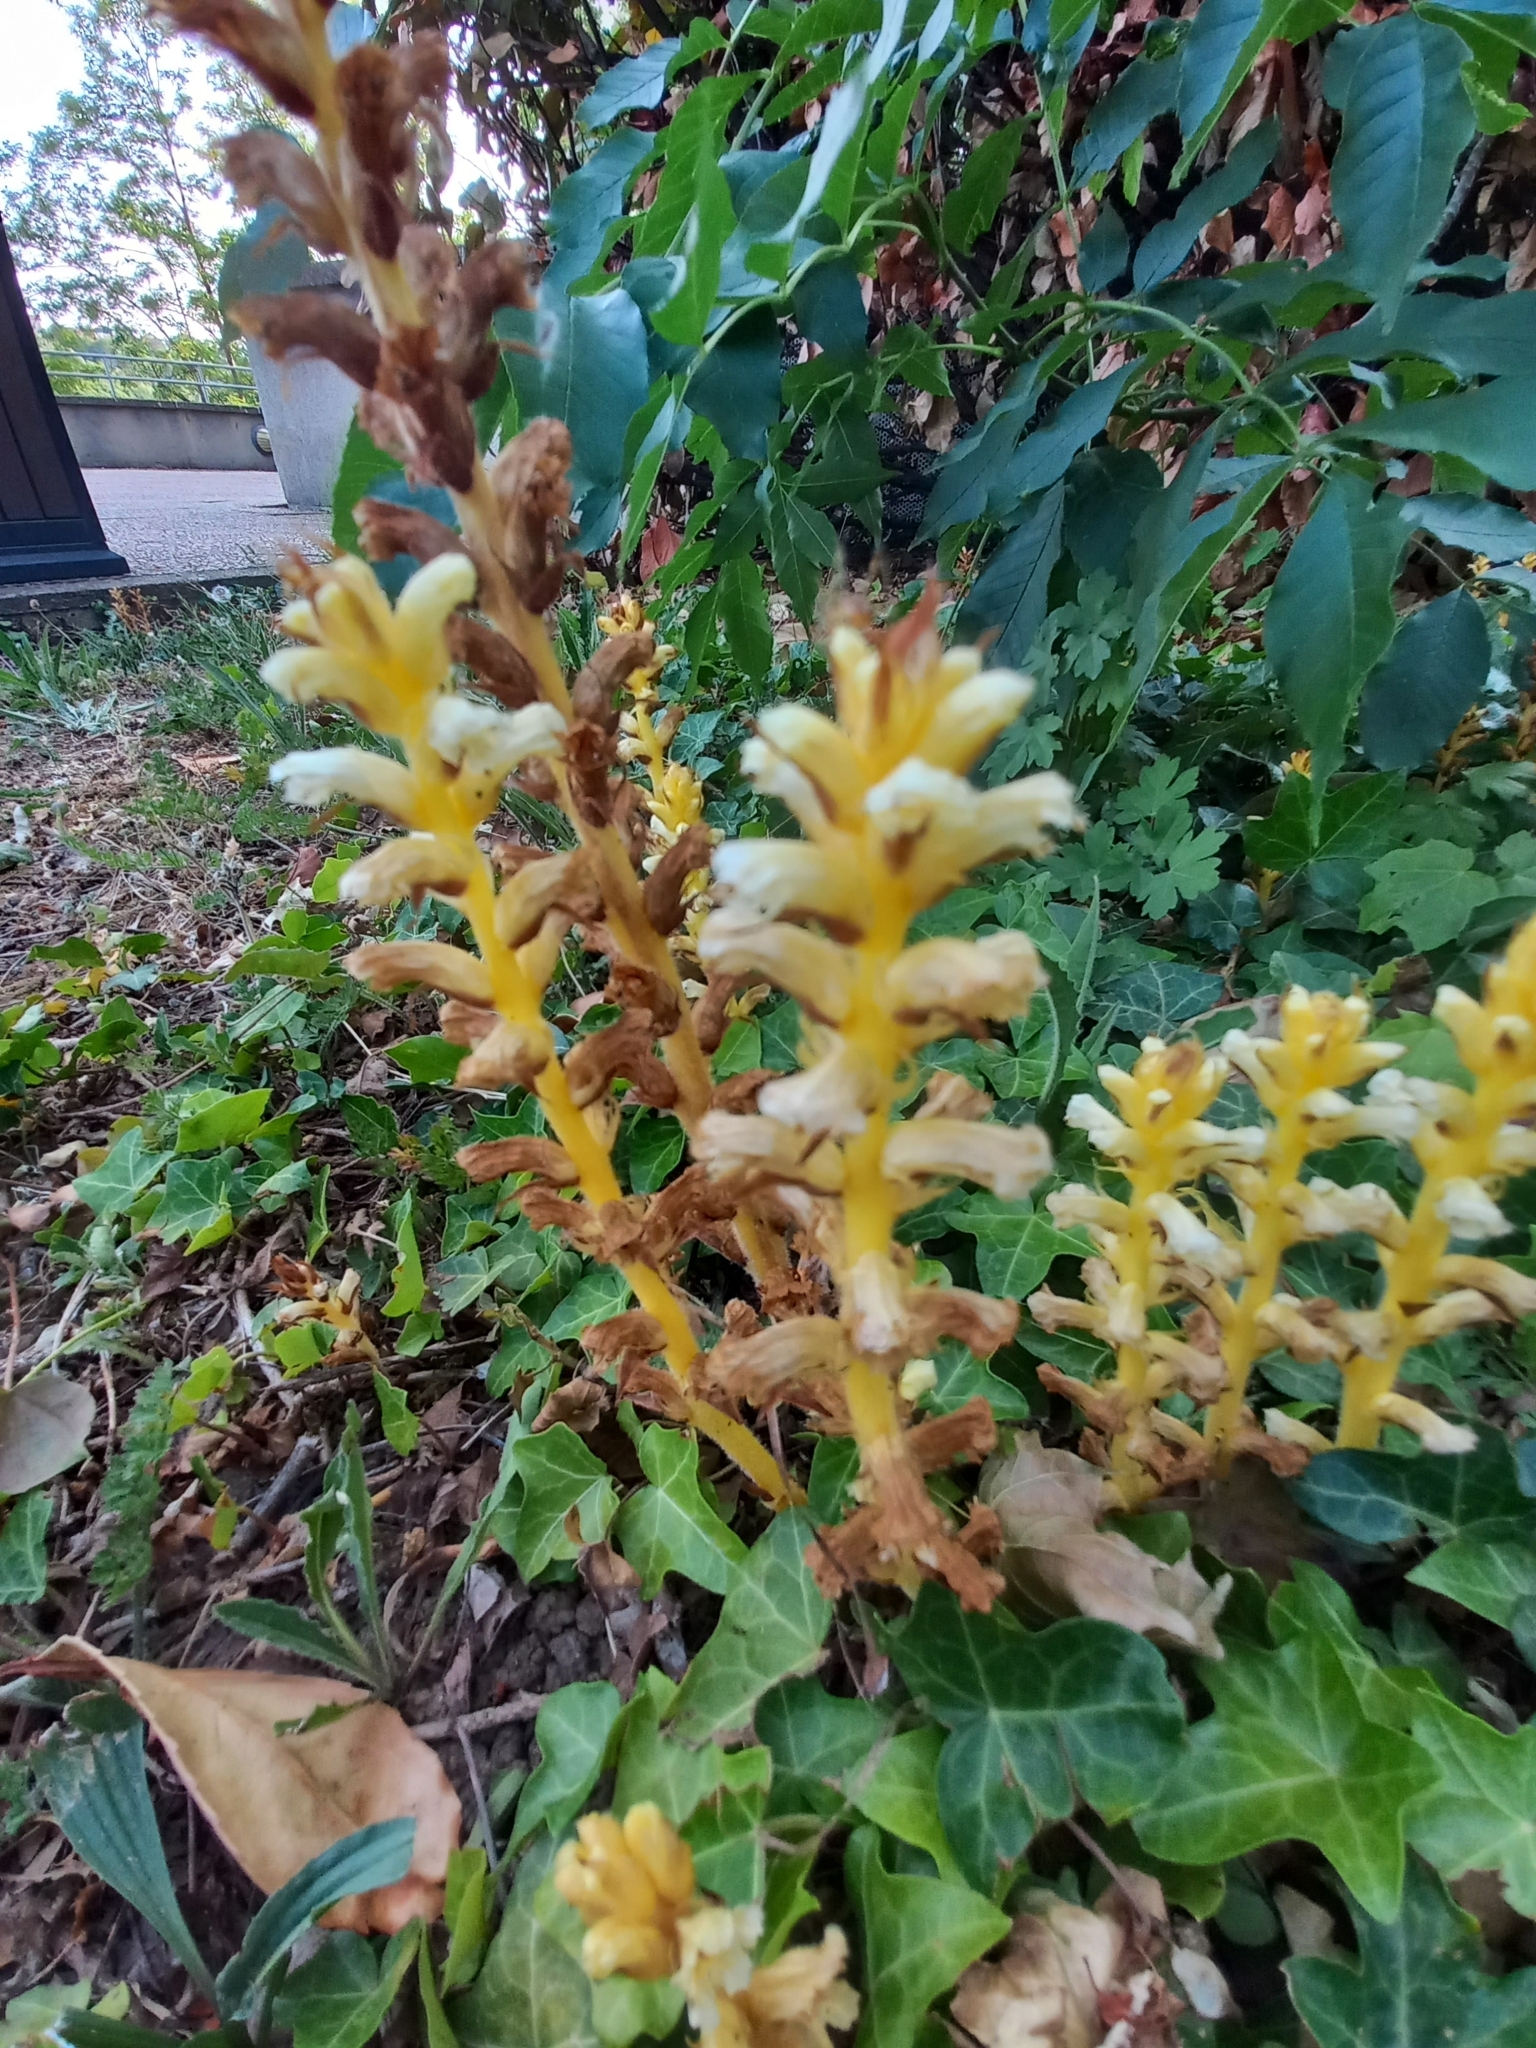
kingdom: Plantae
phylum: Tracheophyta
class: Magnoliopsida
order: Lamiales
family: Orobanchaceae
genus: Orobanche
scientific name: Orobanche hederae
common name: Ivy broomrape
